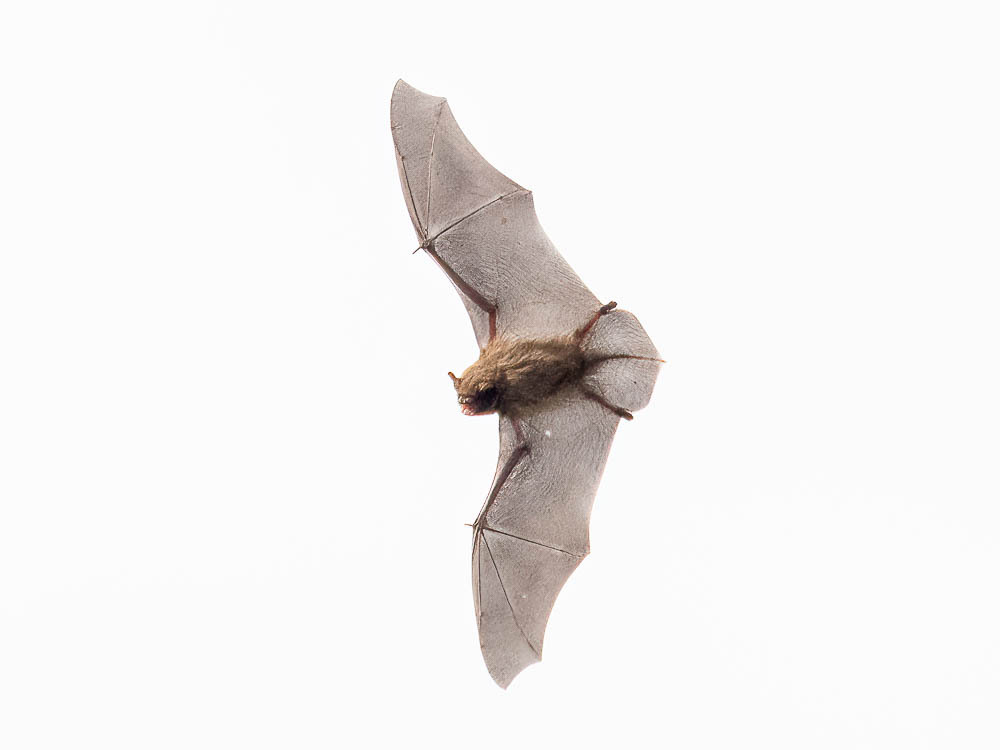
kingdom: Animalia
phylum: Chordata
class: Mammalia
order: Chiroptera
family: Vespertilionidae
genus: Myotis
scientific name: Myotis daubentonii
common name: Daubenton's myotis
